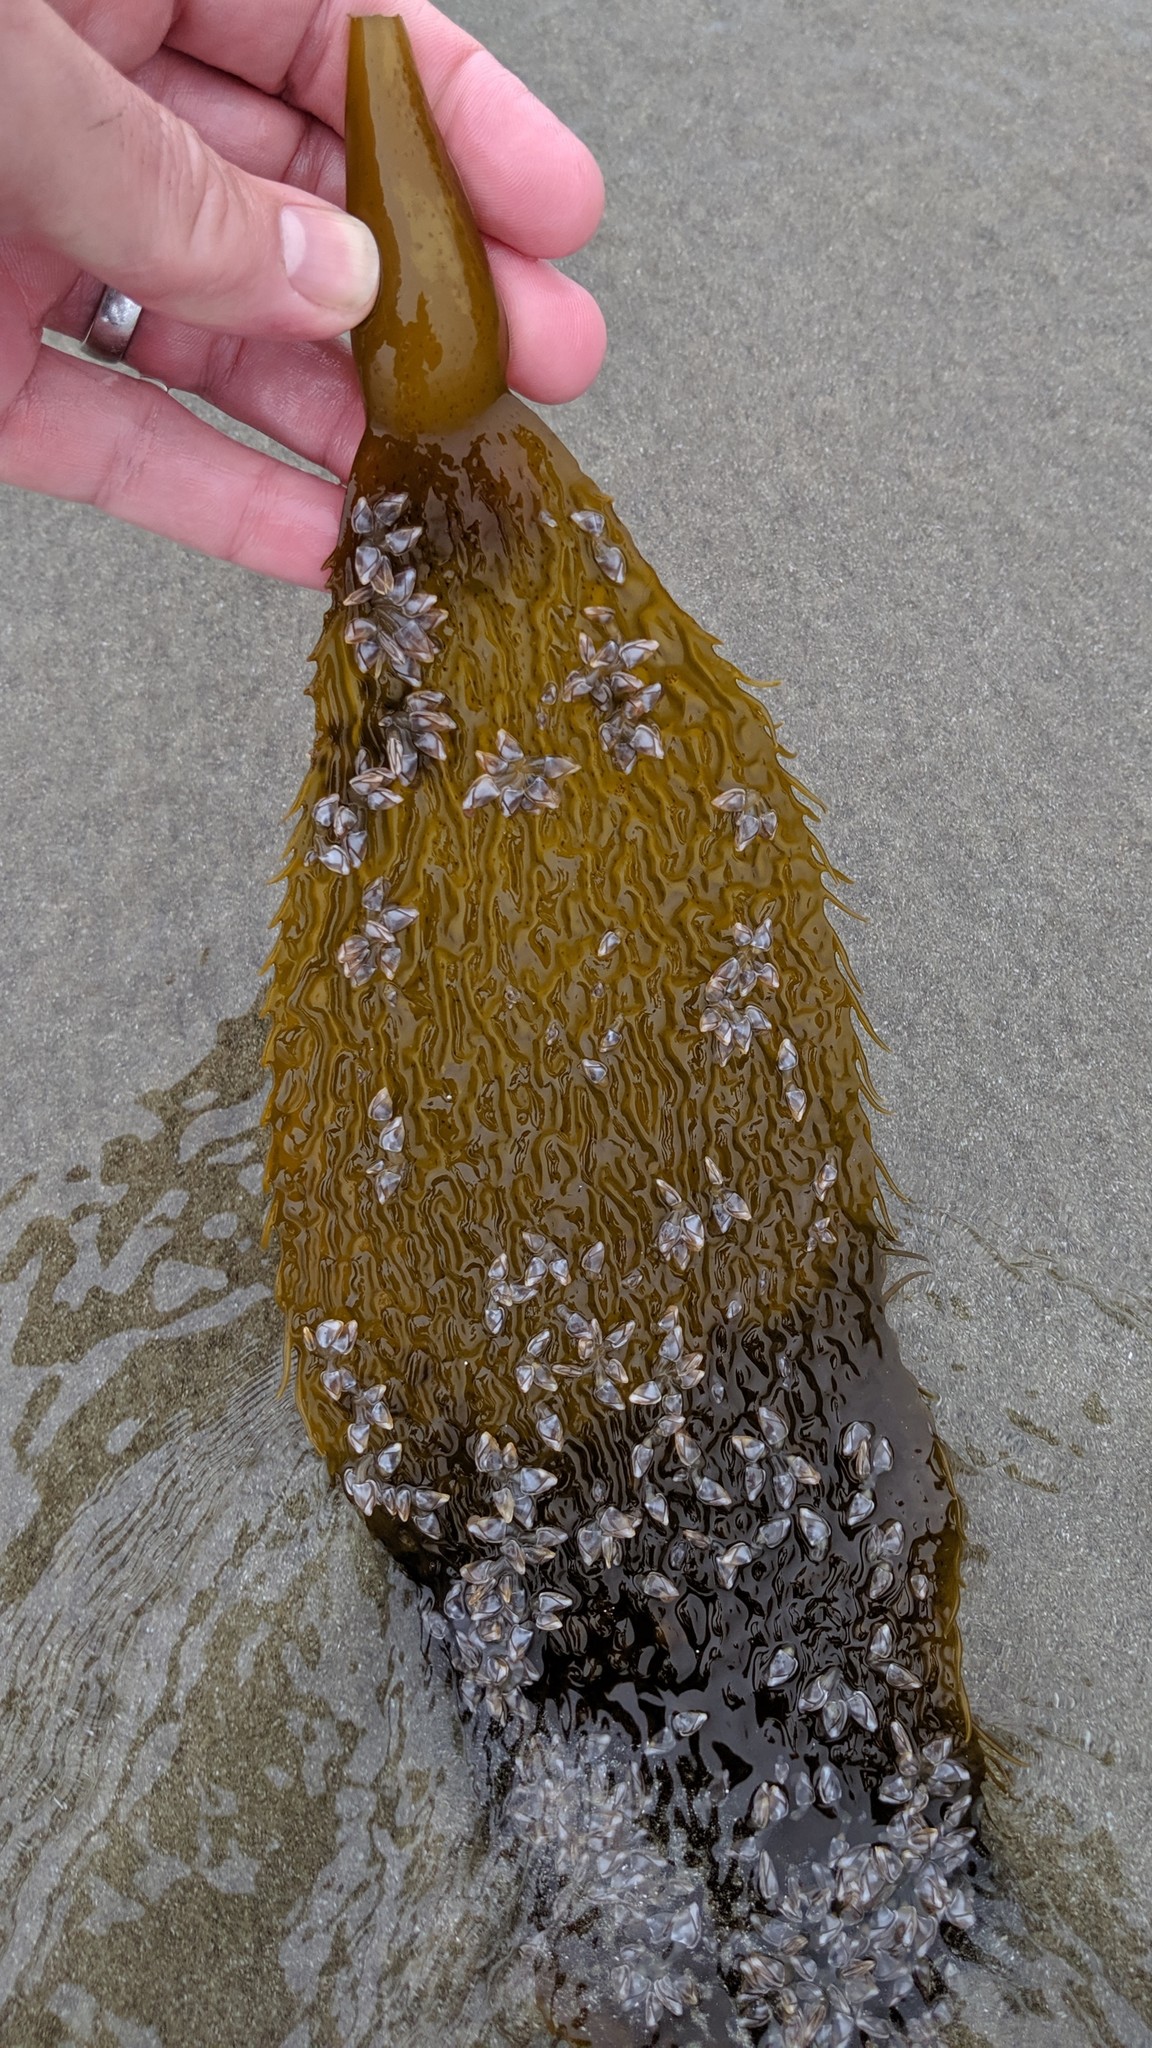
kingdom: Chromista
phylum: Ochrophyta
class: Phaeophyceae
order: Laminariales
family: Laminariaceae
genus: Macrocystis
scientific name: Macrocystis pyrifera
